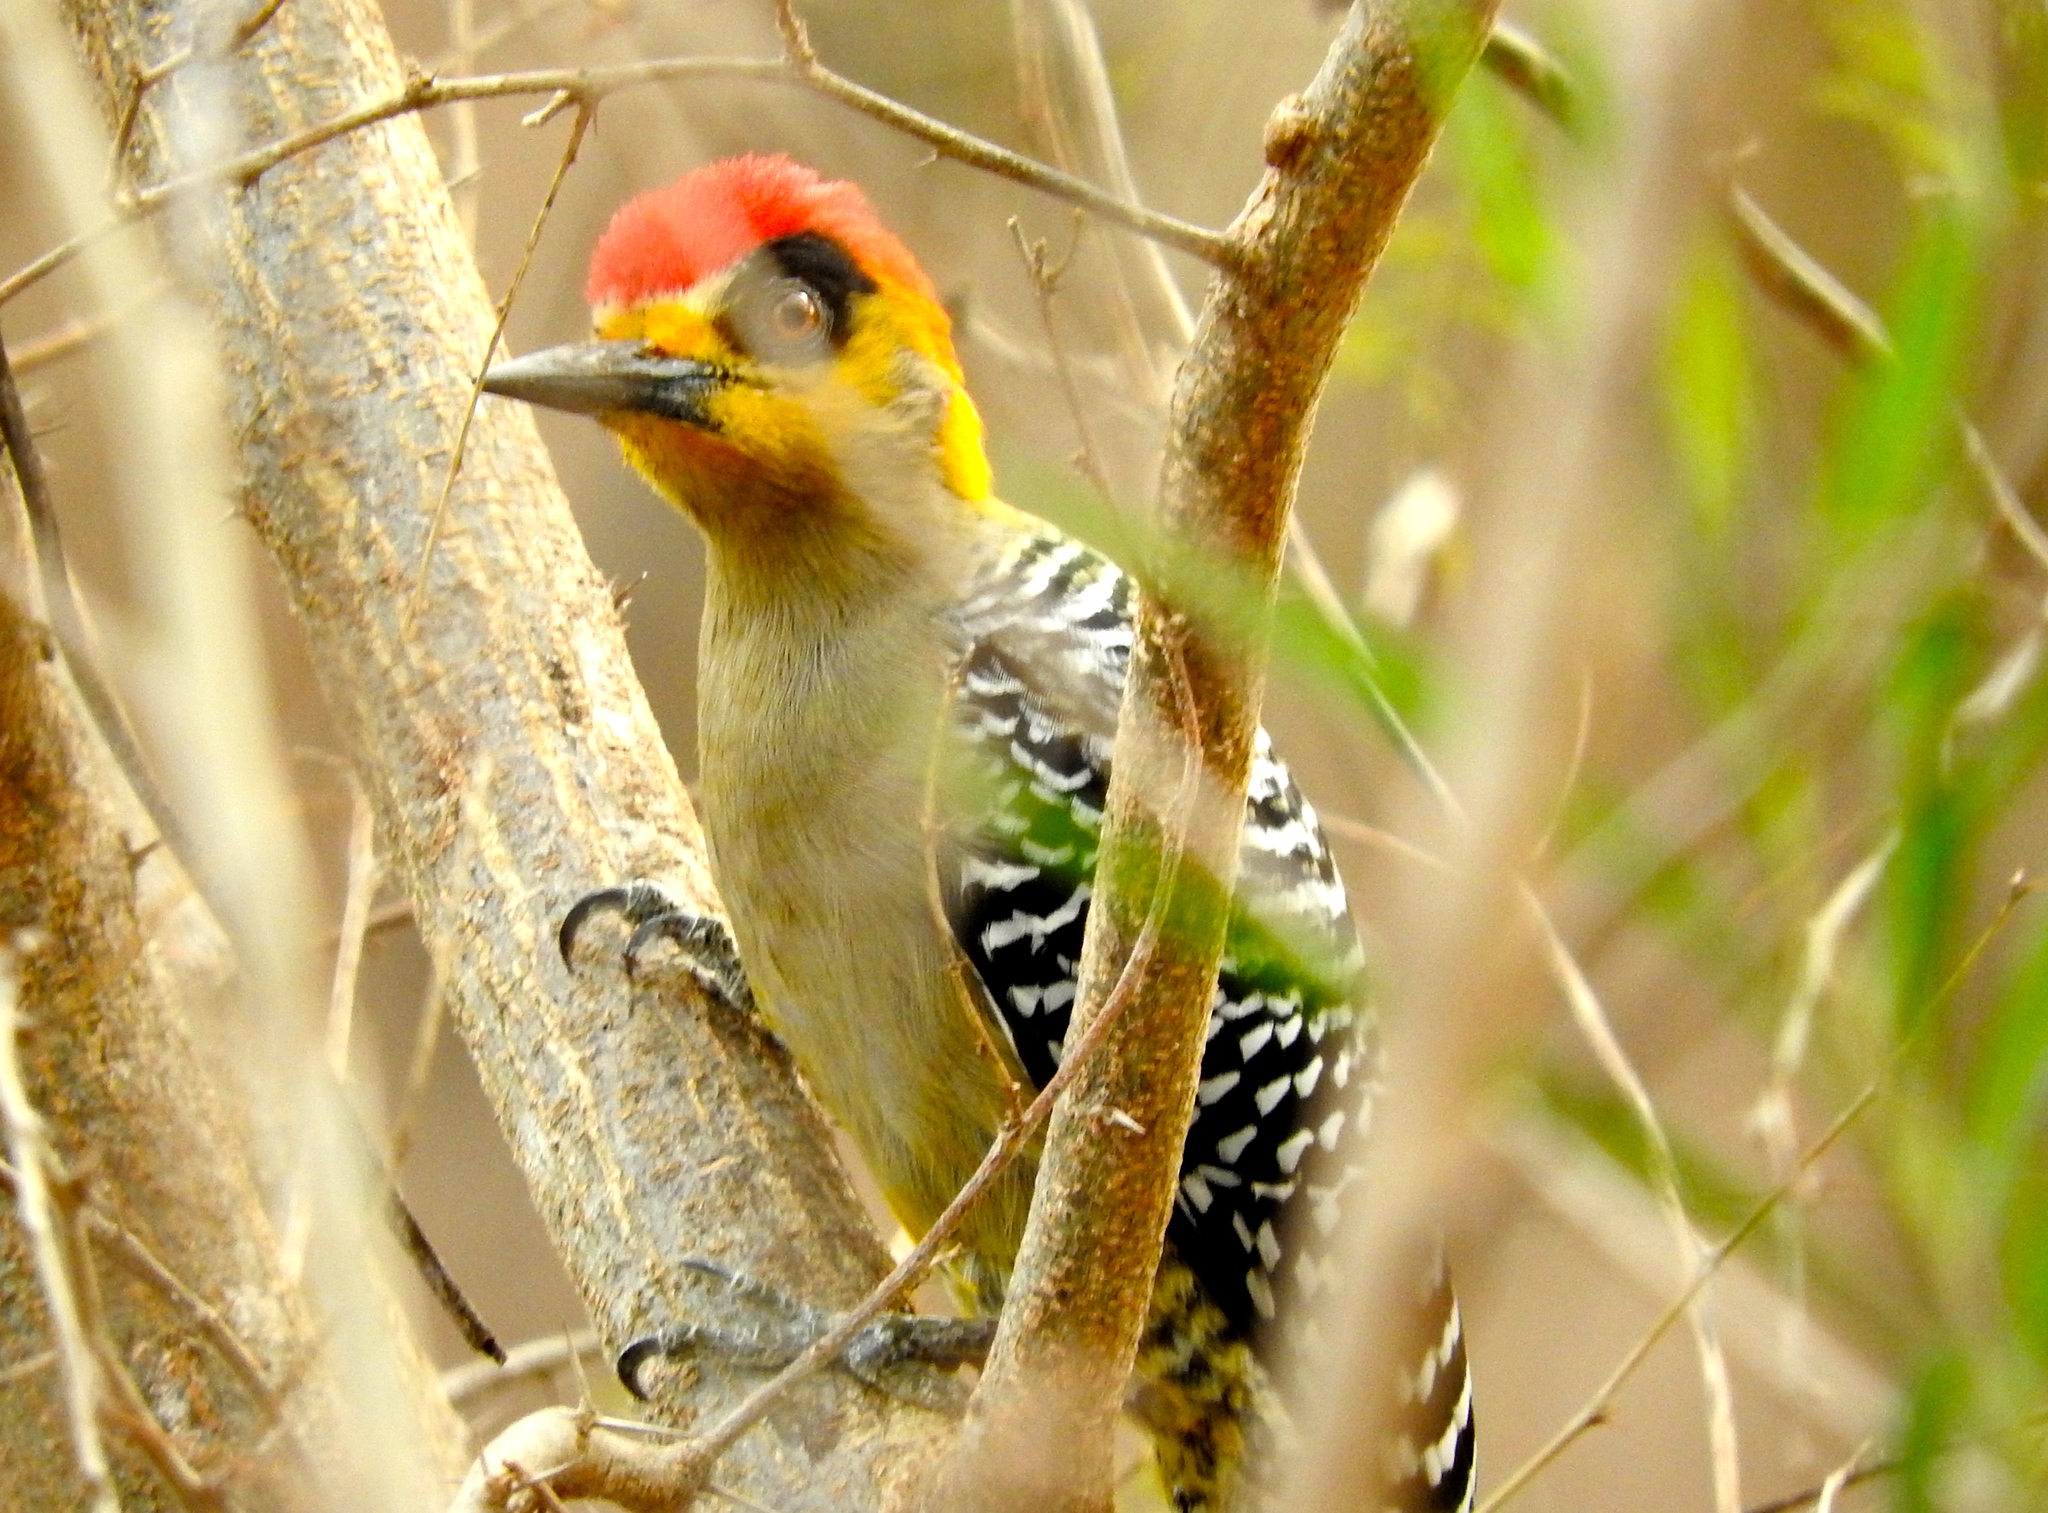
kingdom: Animalia
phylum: Chordata
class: Aves
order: Piciformes
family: Picidae
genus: Melanerpes
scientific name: Melanerpes chrysogenys
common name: Golden-cheeked woodpecker
